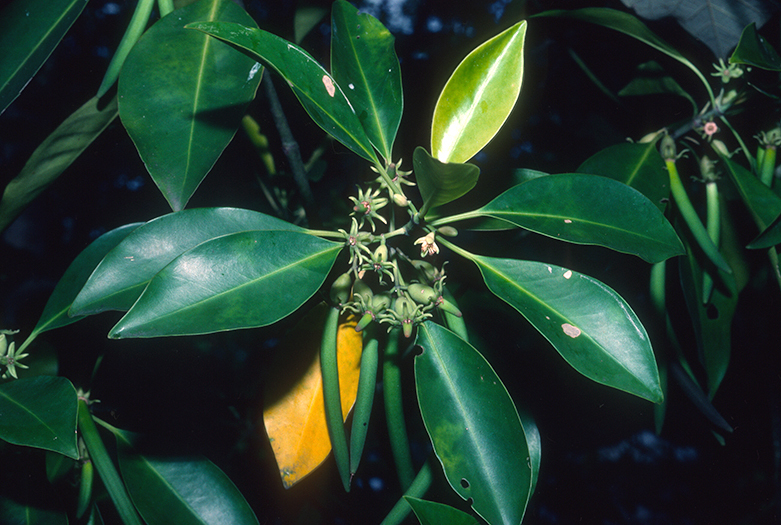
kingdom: Plantae
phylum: Tracheophyta
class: Magnoliopsida
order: Malpighiales
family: Rhizophoraceae
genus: Bruguiera
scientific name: Bruguiera cylindrica
